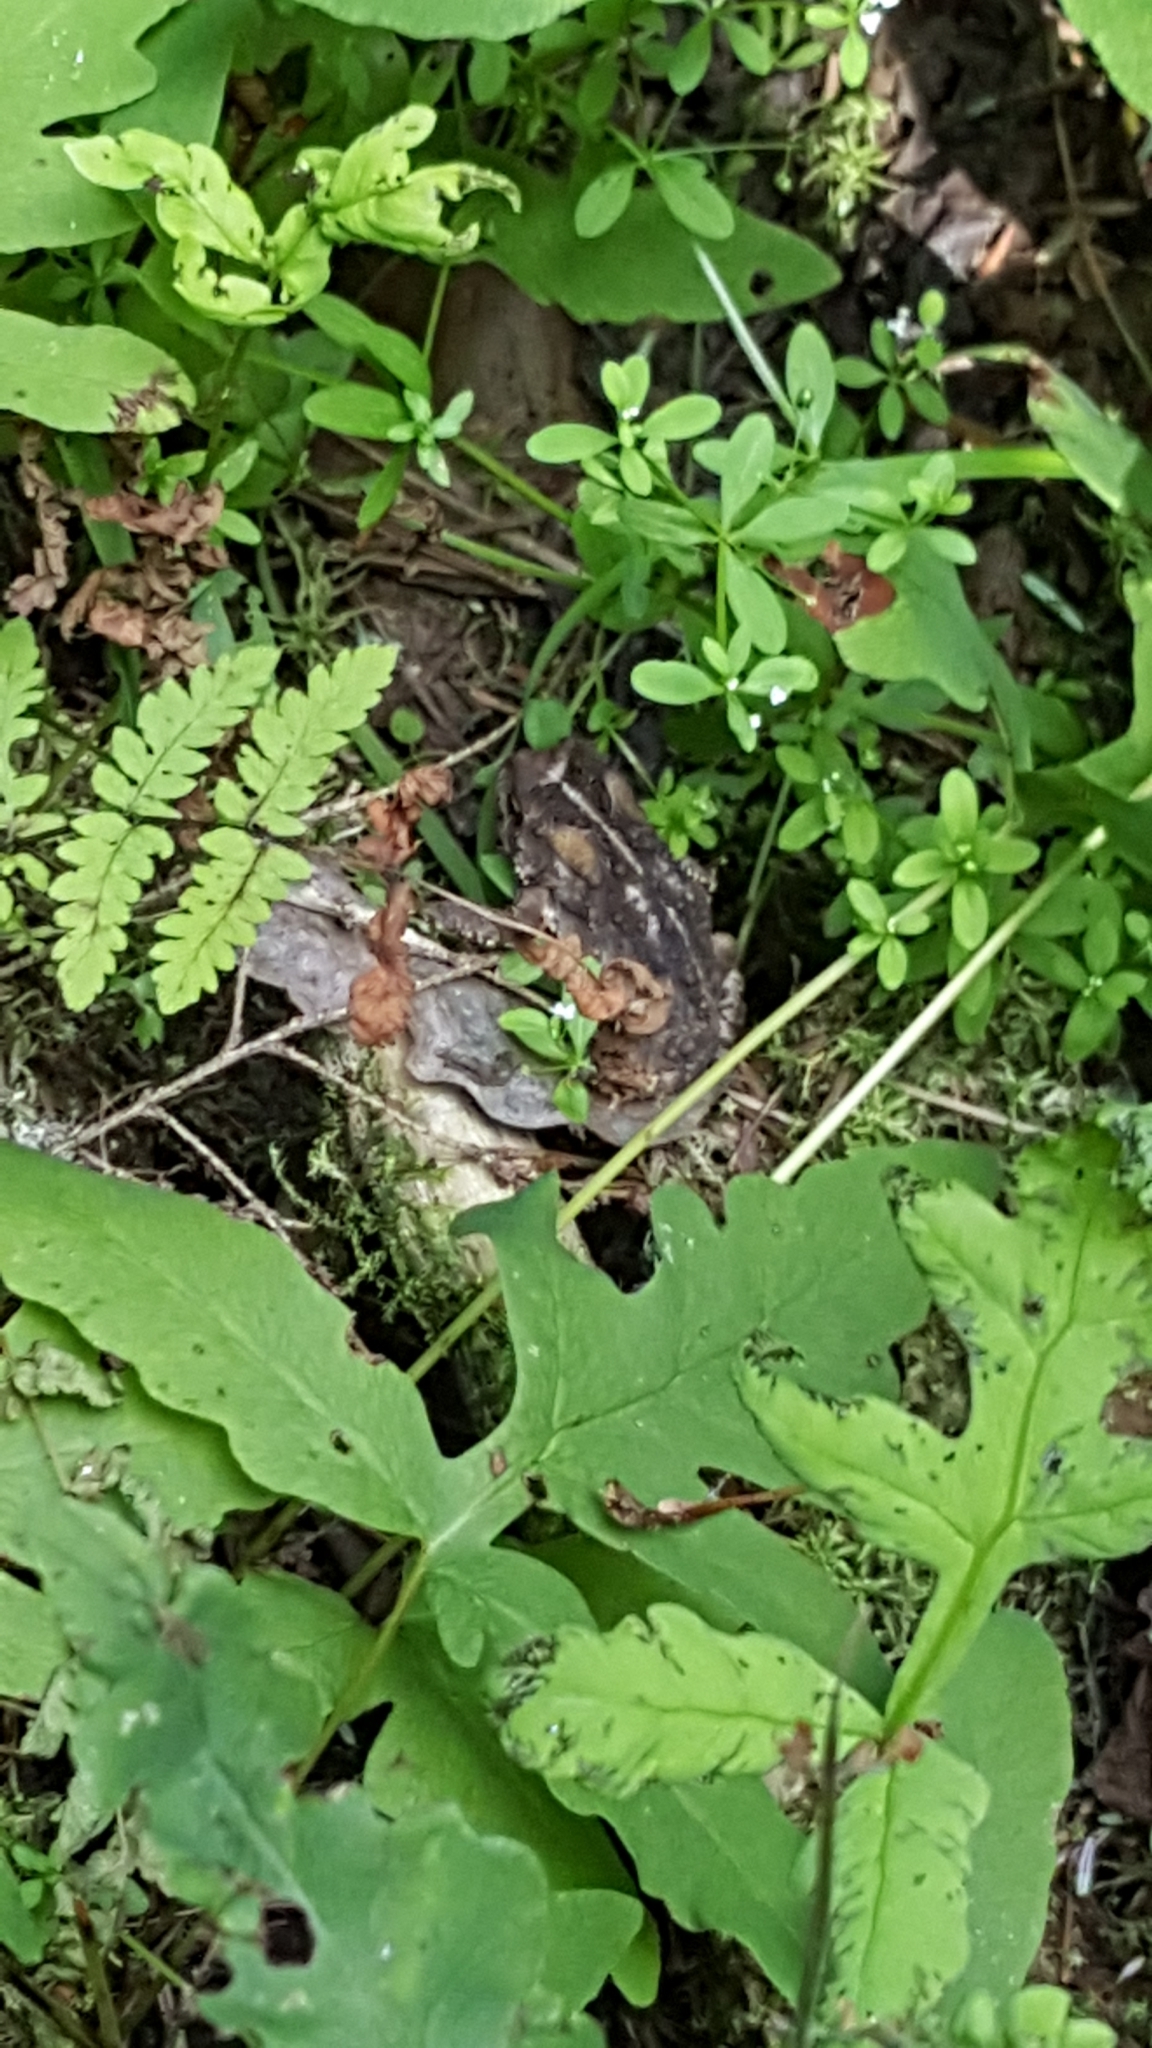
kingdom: Animalia
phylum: Chordata
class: Amphibia
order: Anura
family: Bufonidae
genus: Anaxyrus
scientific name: Anaxyrus americanus
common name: American toad
